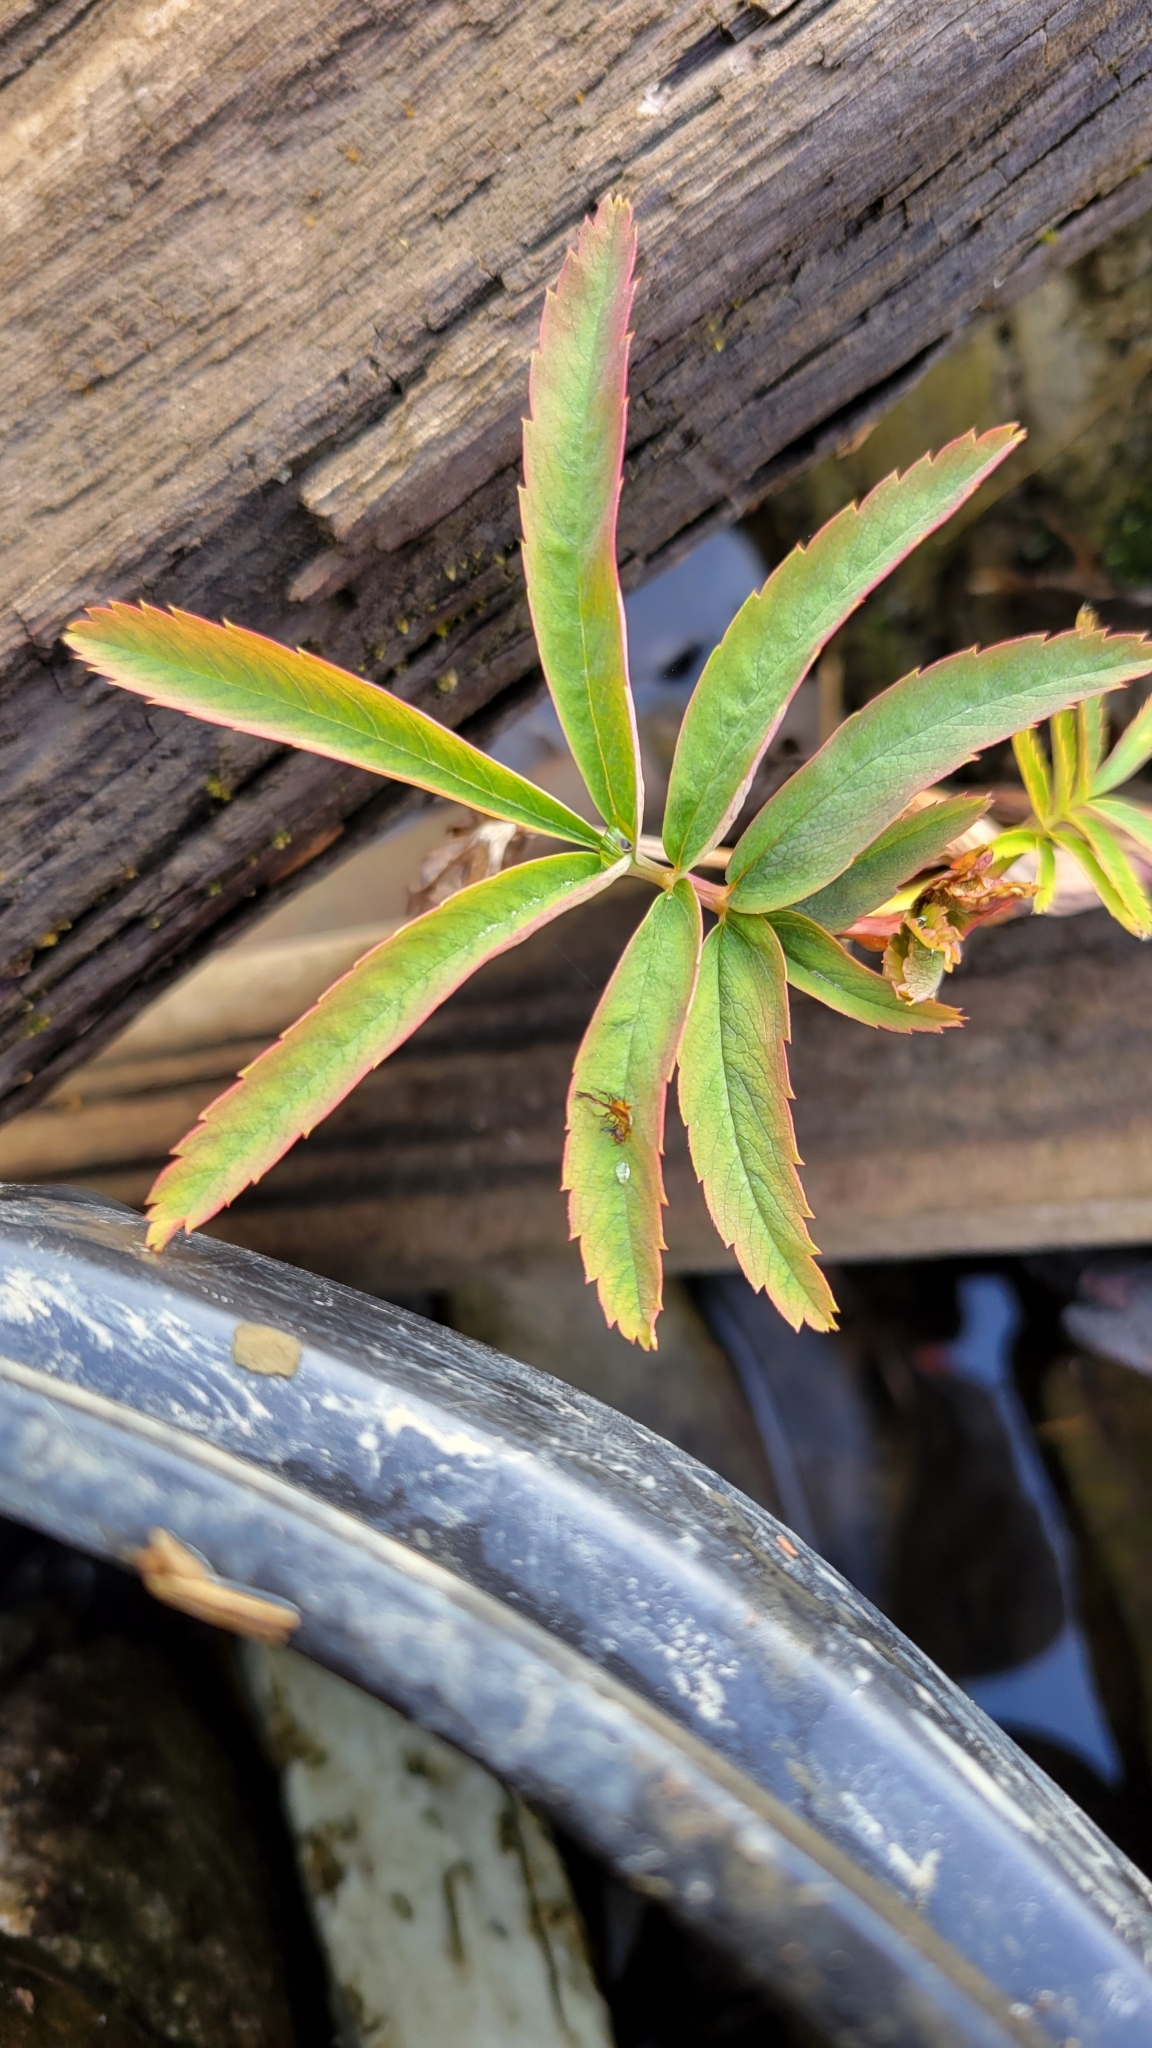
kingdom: Plantae
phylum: Tracheophyta
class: Magnoliopsida
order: Rosales
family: Rosaceae
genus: Comarum
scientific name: Comarum palustre
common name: Marsh cinquefoil
